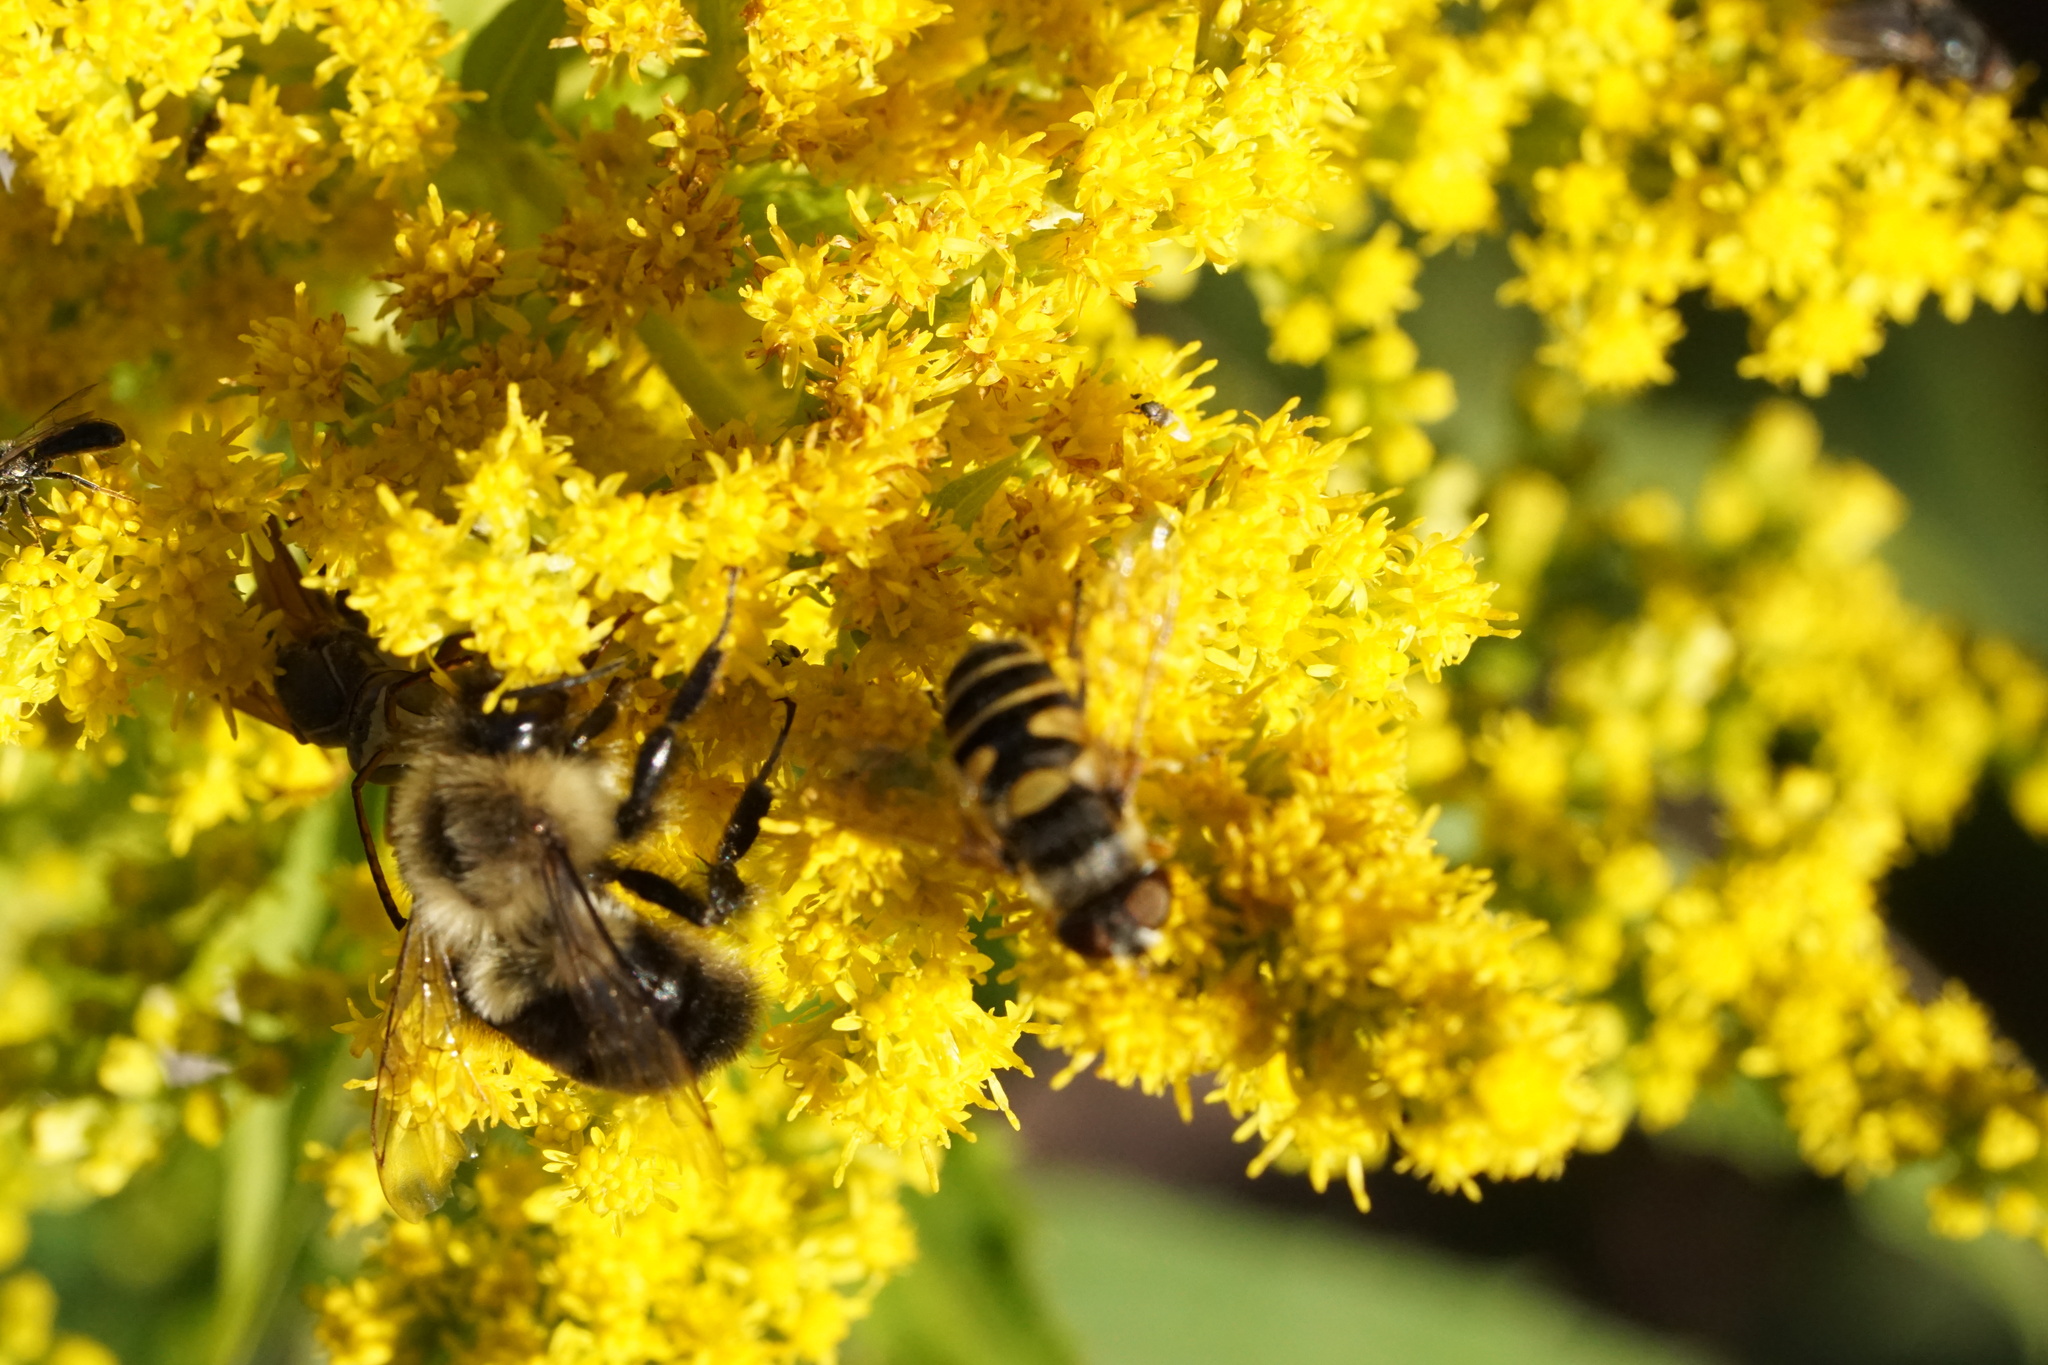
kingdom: Animalia
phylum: Arthropoda
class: Insecta
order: Hymenoptera
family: Apidae
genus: Bombus
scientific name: Bombus impatiens
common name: Common eastern bumble bee
